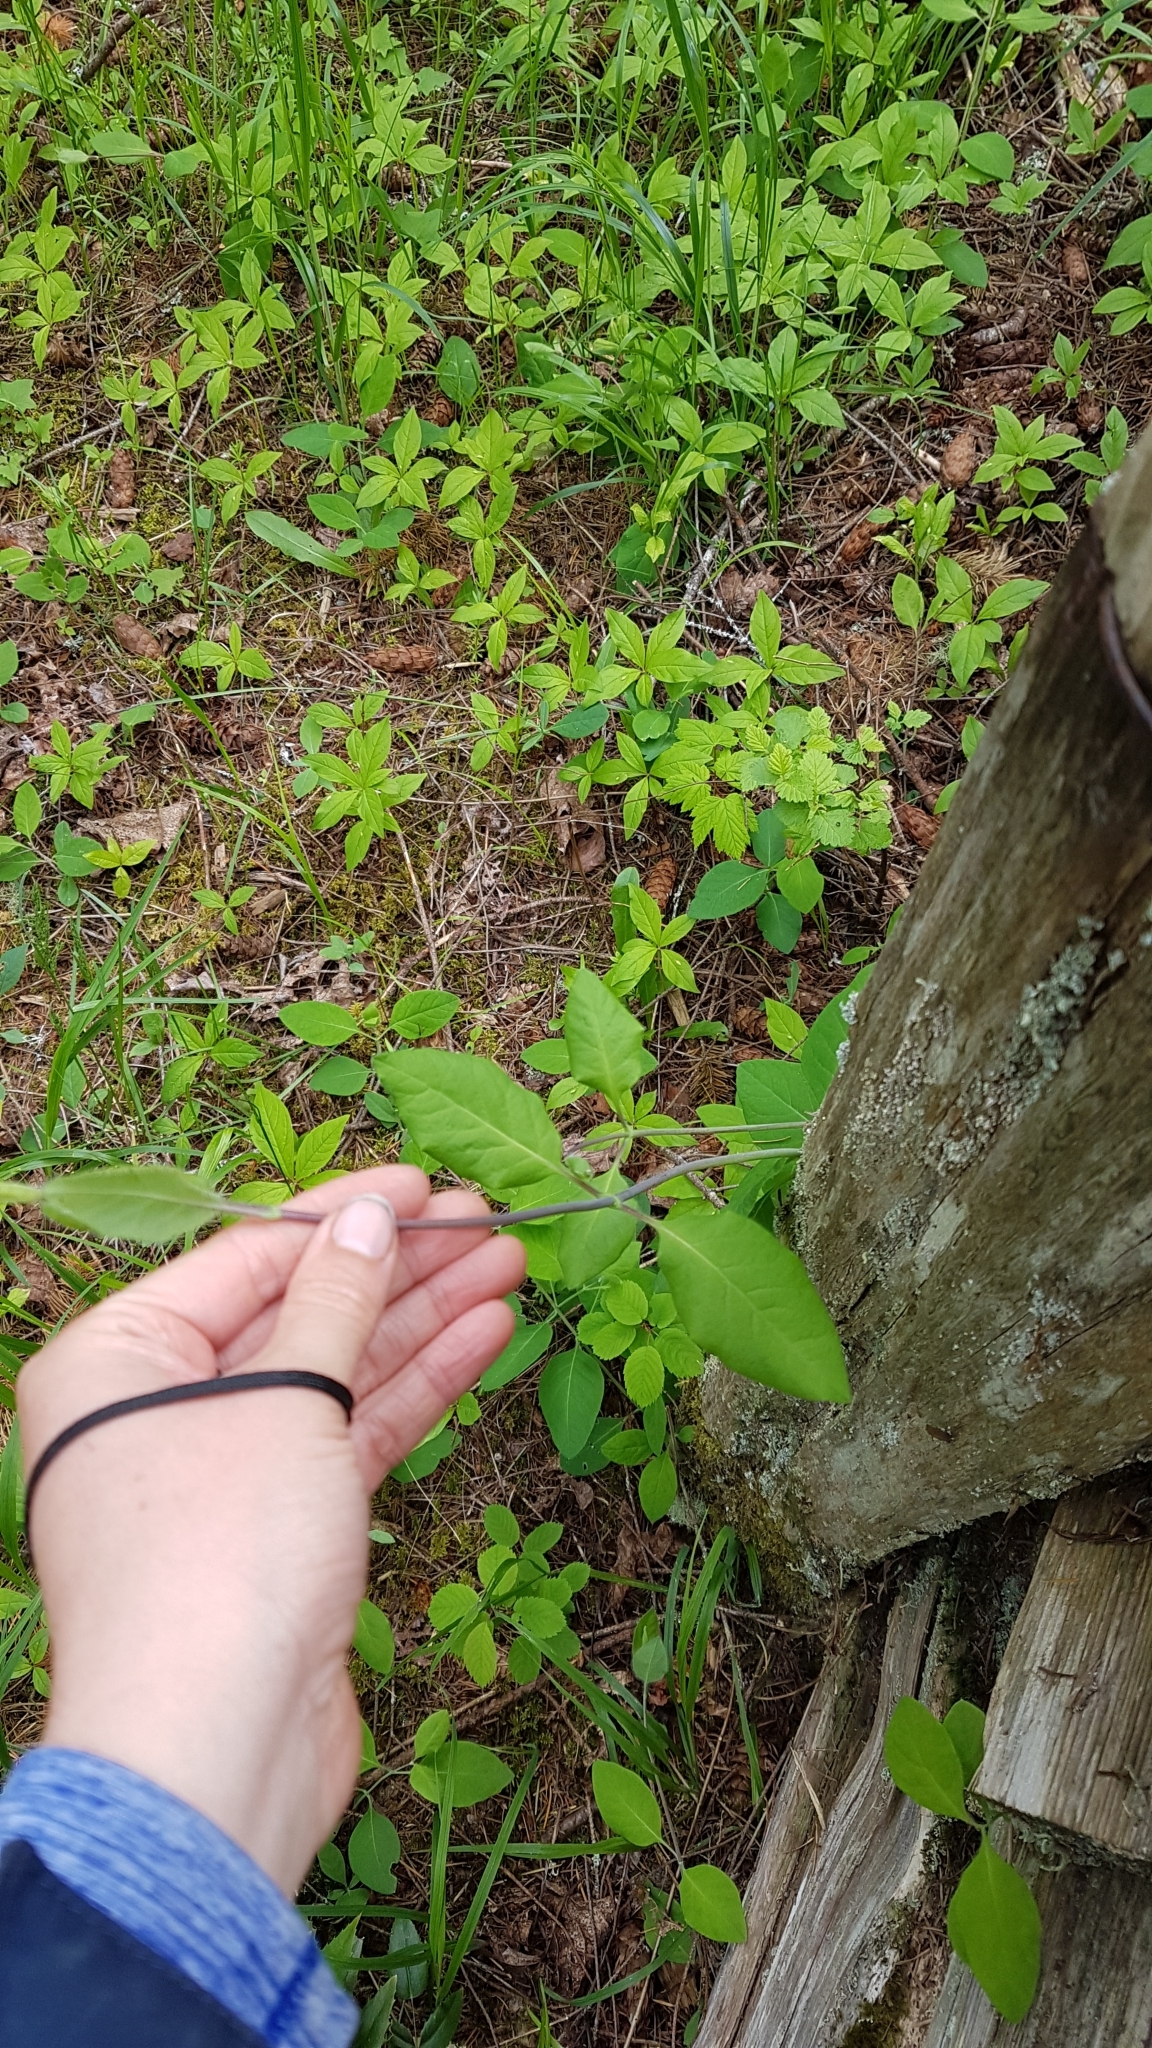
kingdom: Plantae
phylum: Tracheophyta
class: Magnoliopsida
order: Dipsacales
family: Caprifoliaceae
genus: Lonicera
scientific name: Lonicera ciliosa
